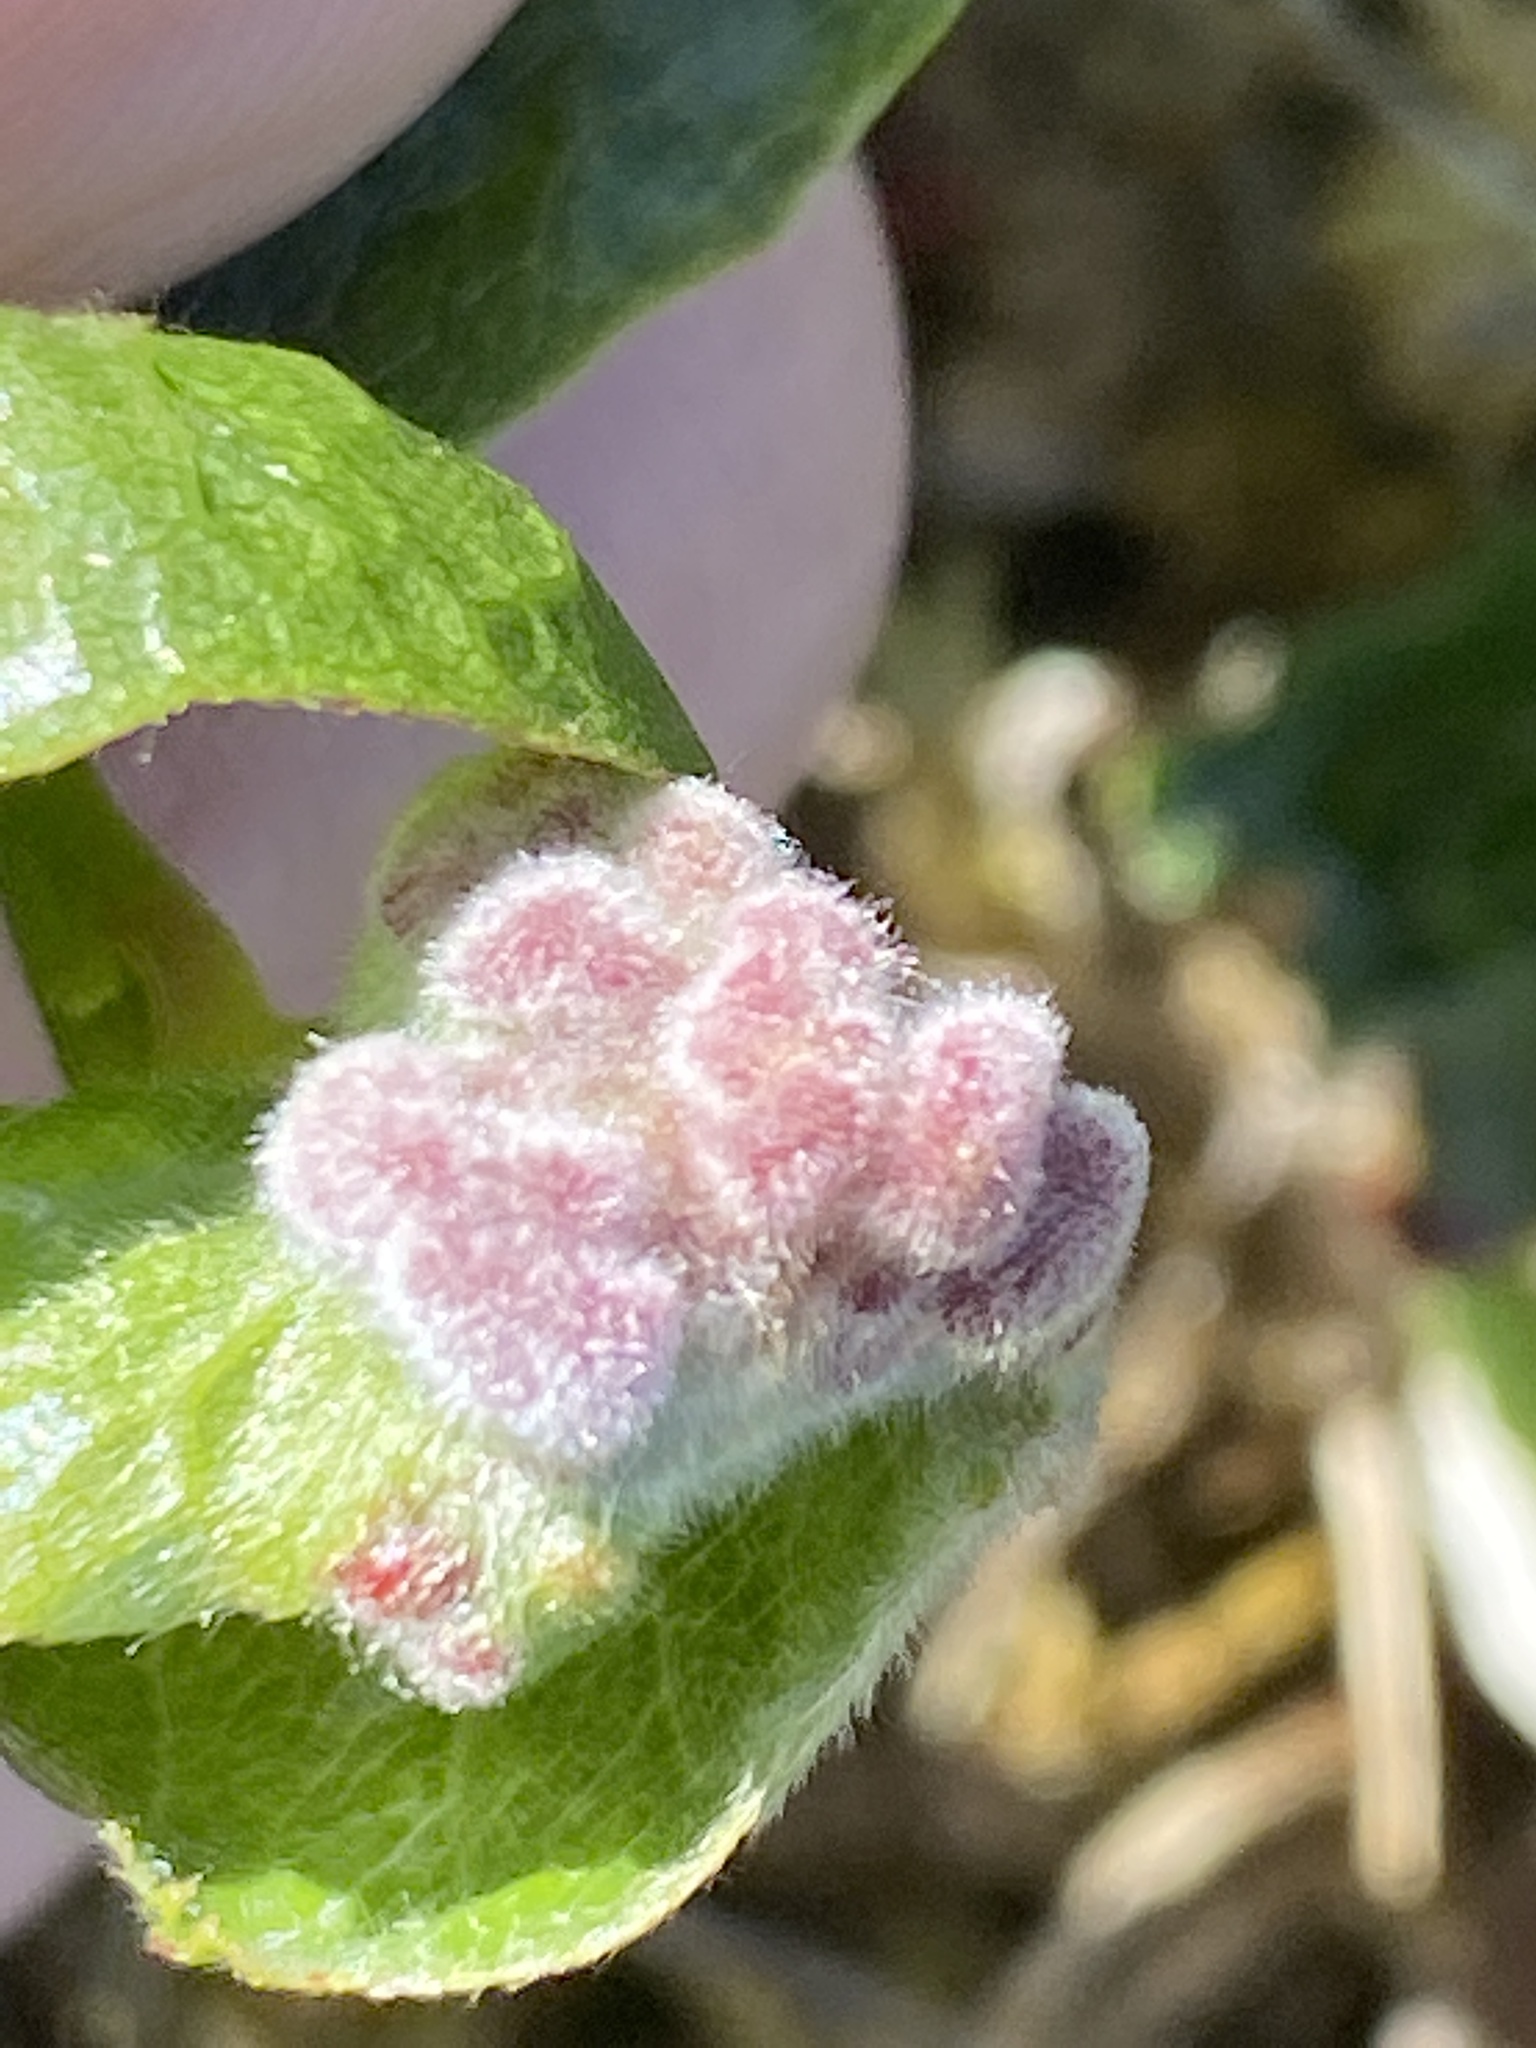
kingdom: Animalia
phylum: Arthropoda
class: Arachnida
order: Trombidiformes
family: Eriophyidae
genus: Aculus
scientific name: Aculus gemmarum
